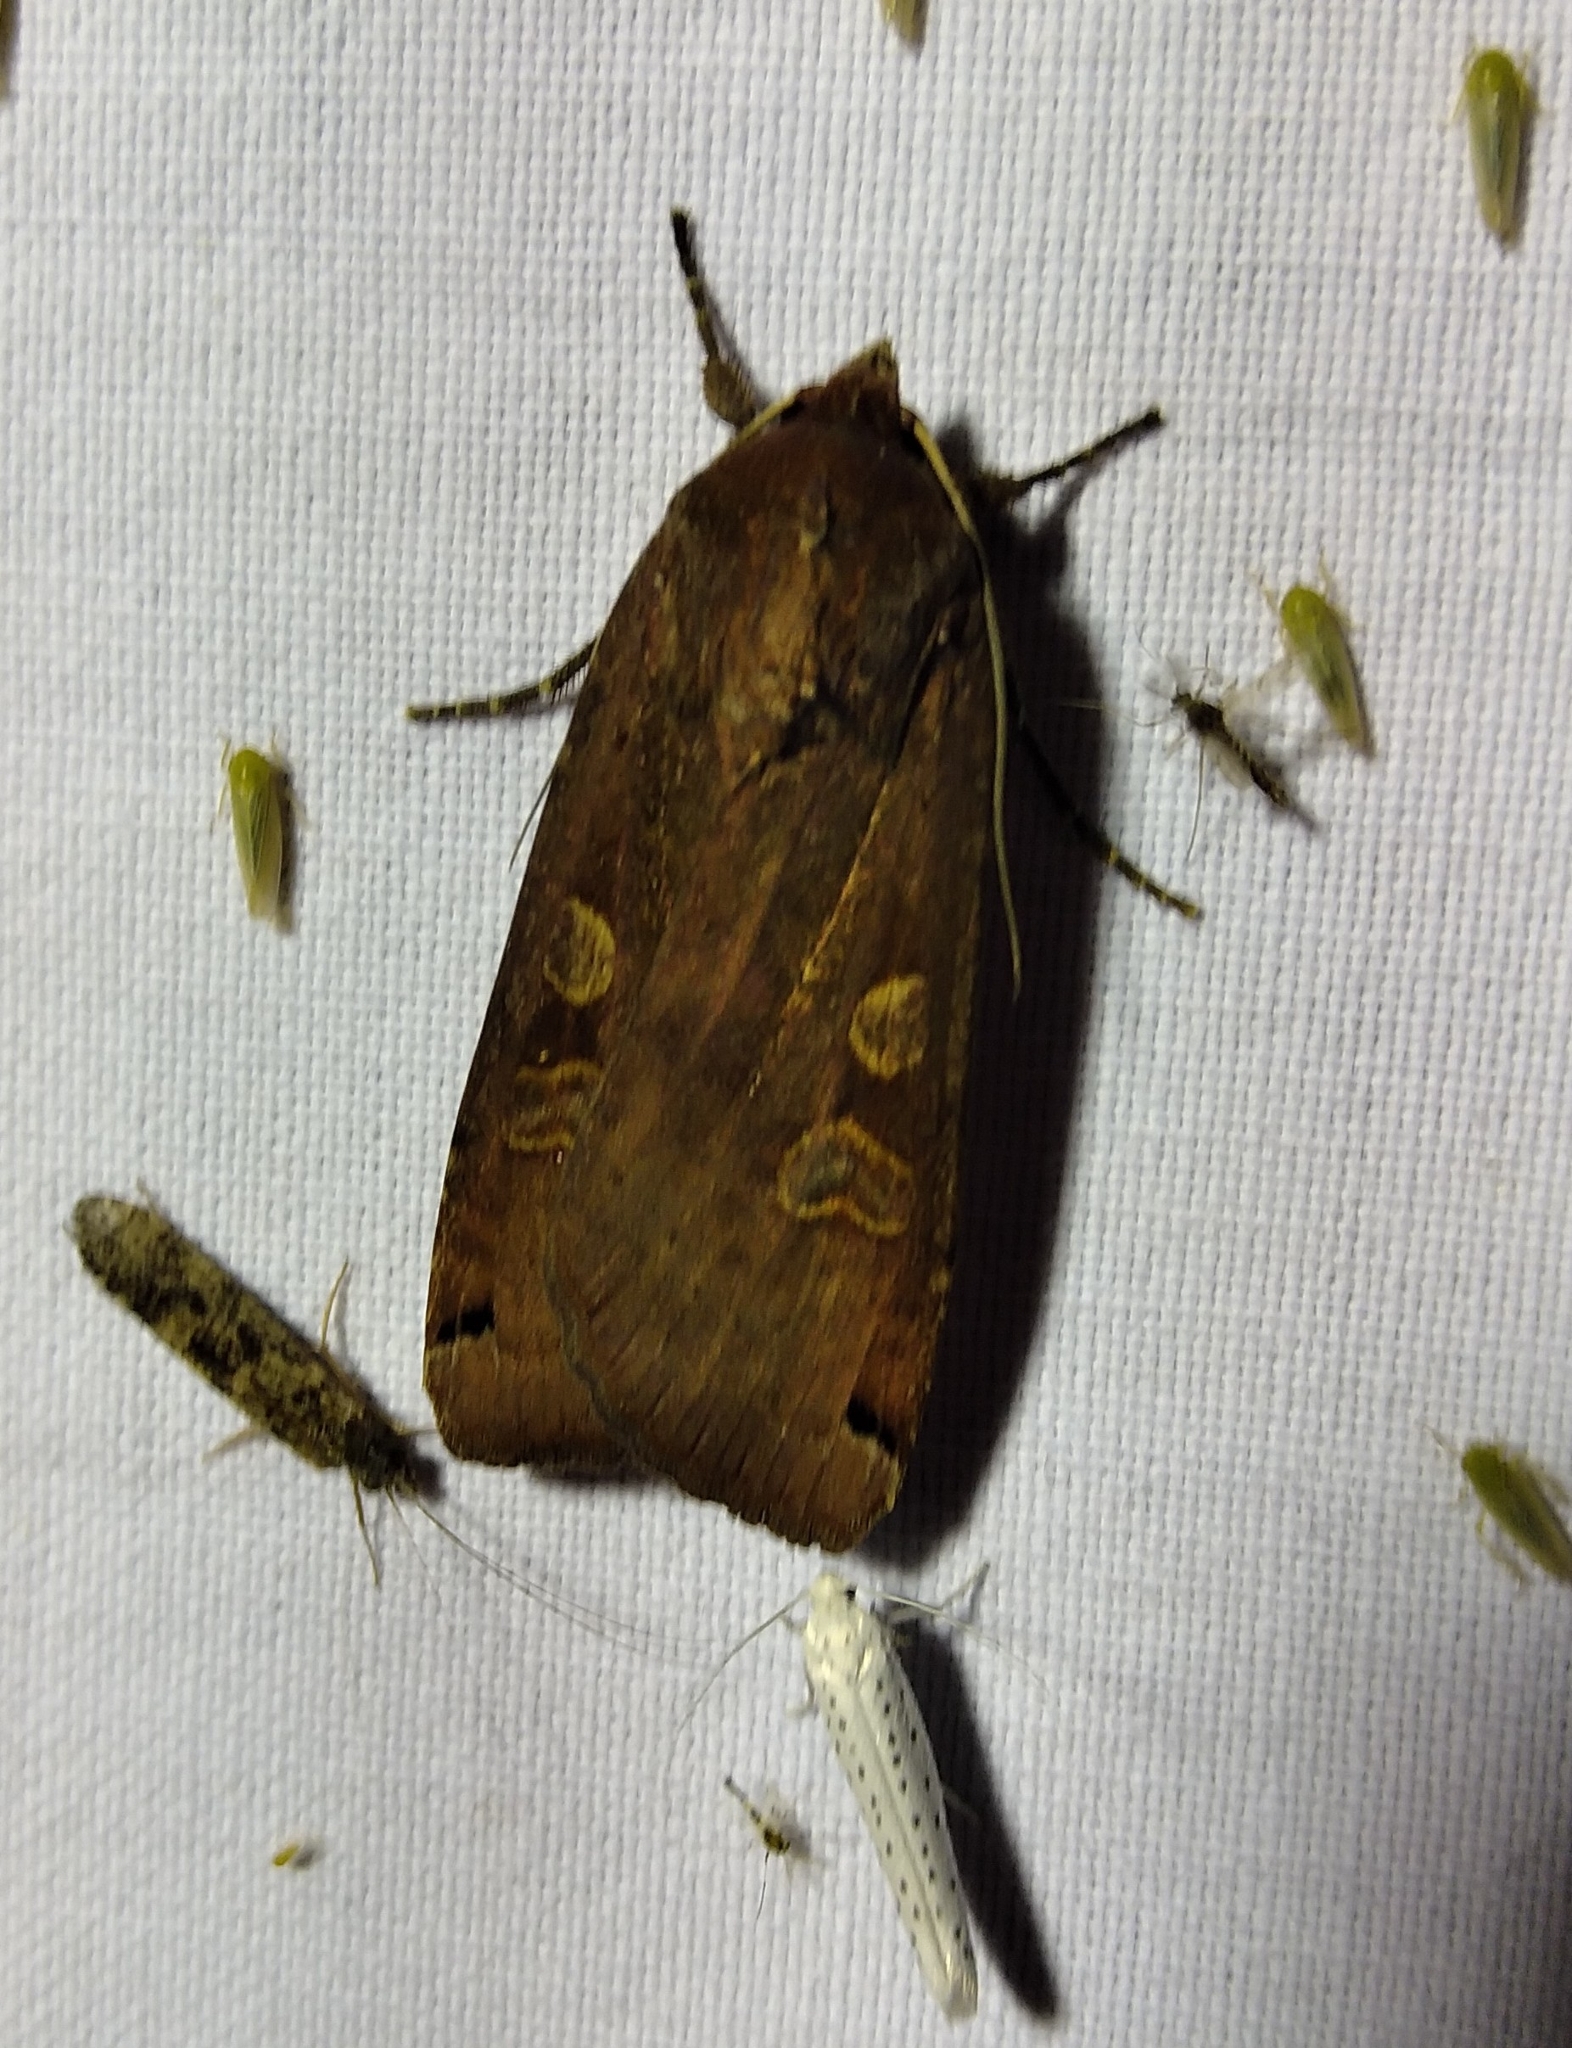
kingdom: Animalia
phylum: Arthropoda
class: Insecta
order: Lepidoptera
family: Noctuidae
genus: Noctua
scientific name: Noctua pronuba
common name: Large yellow underwing
